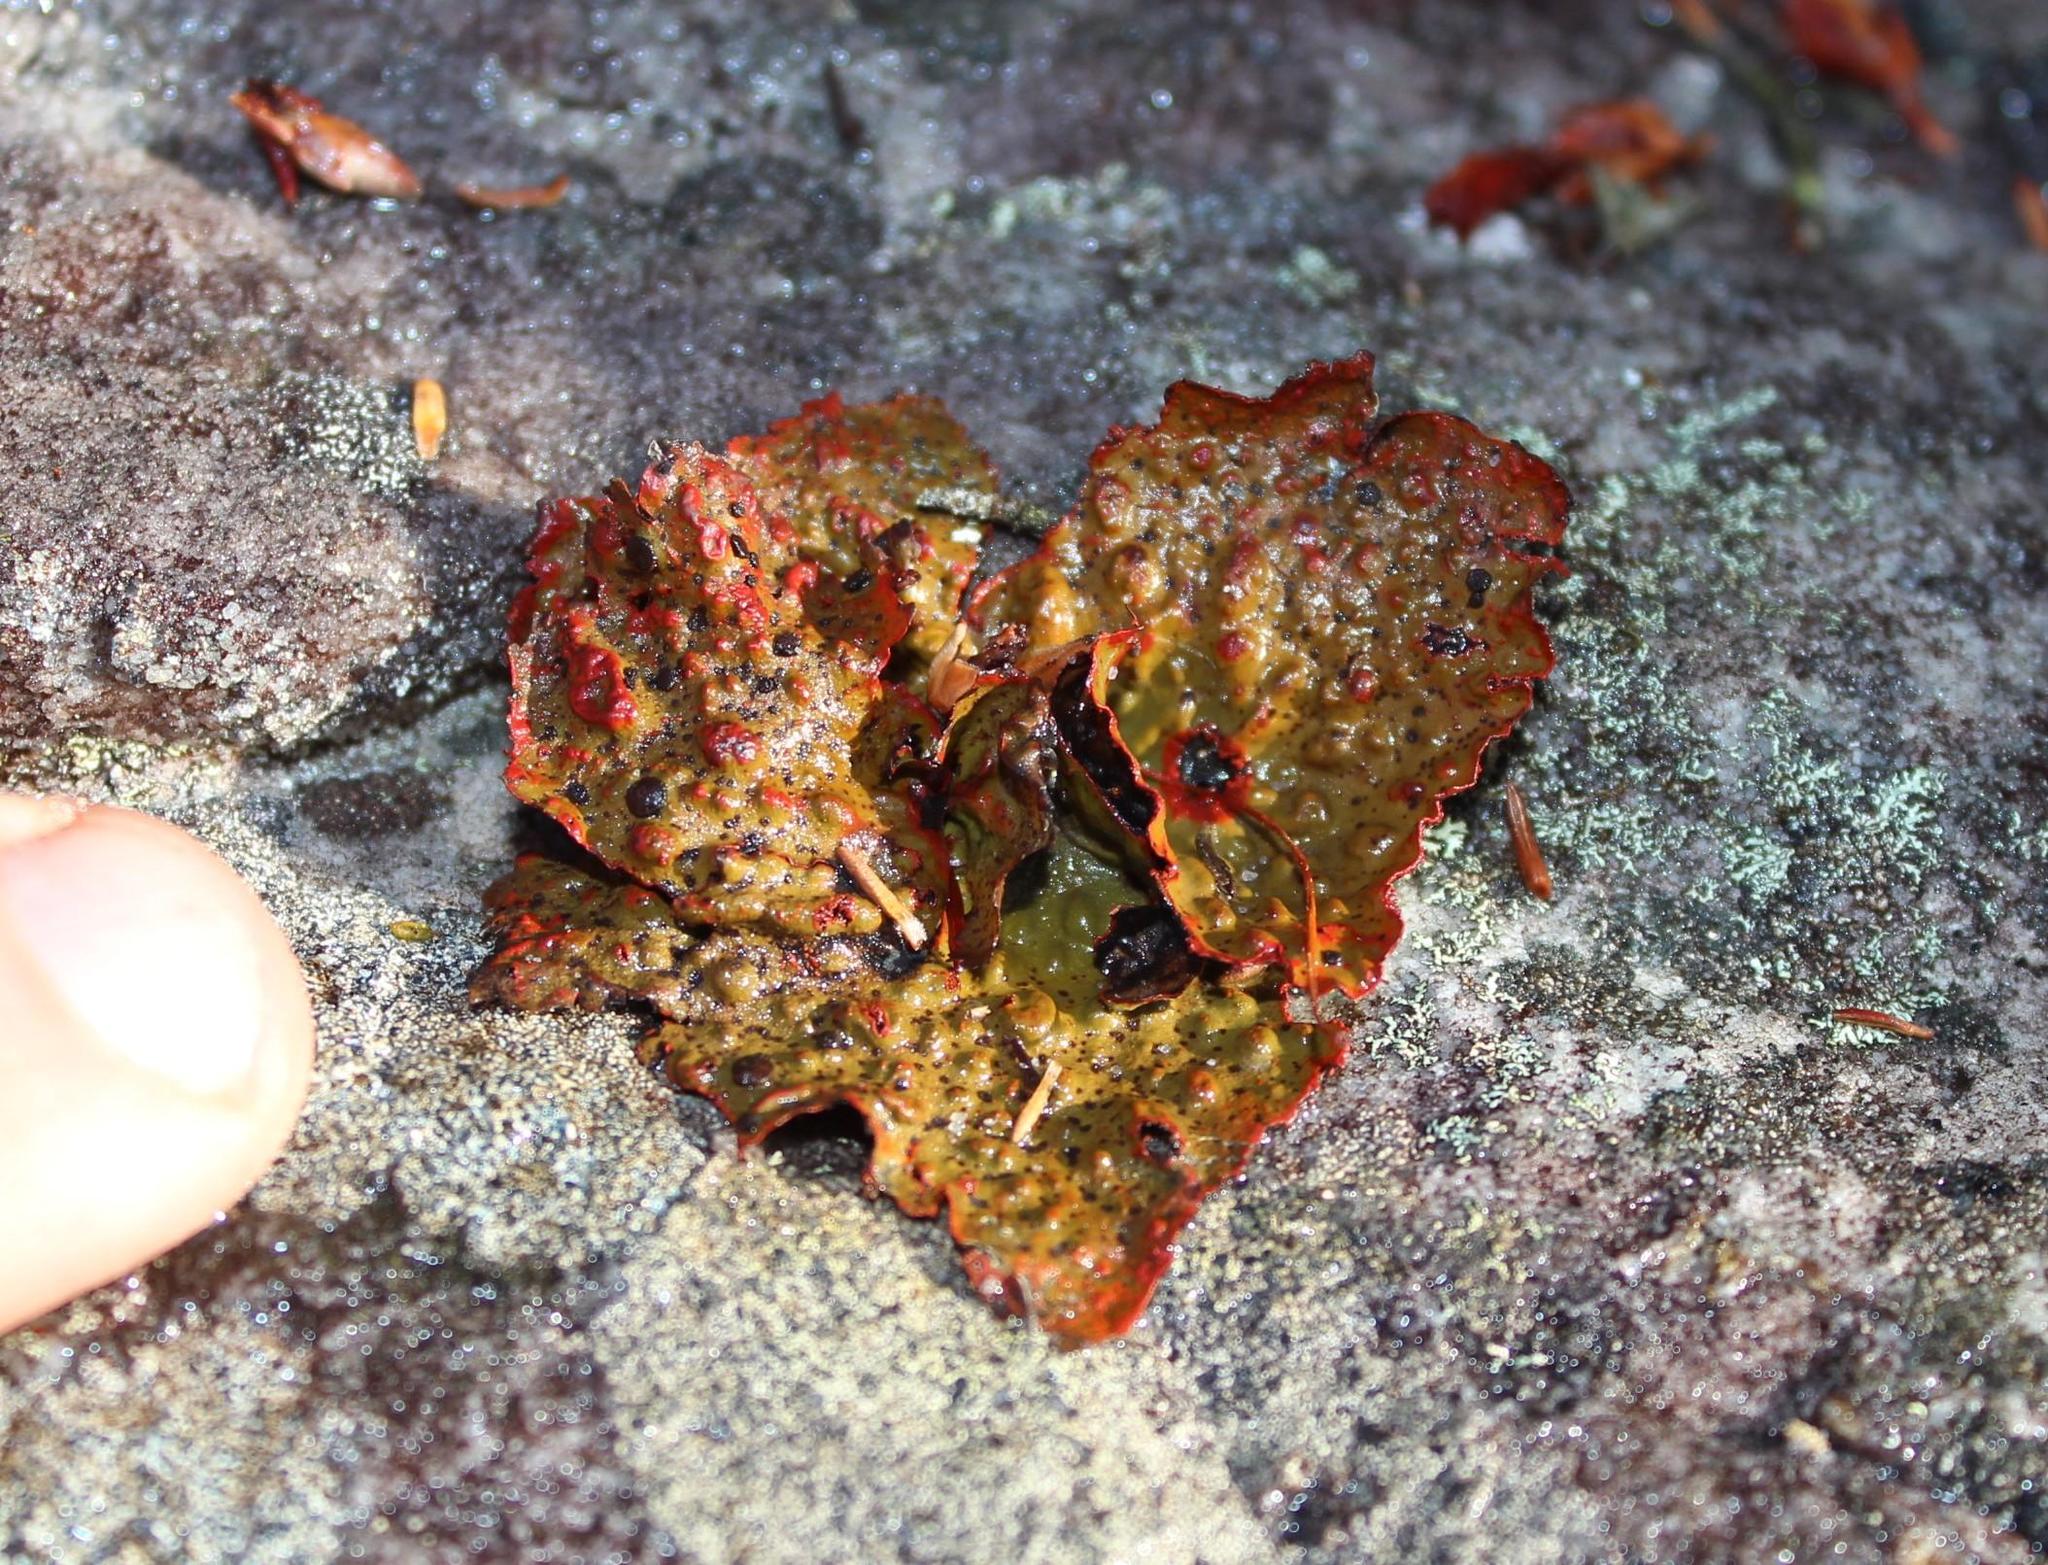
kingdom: Fungi
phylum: Ascomycota
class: Lecanoromycetes
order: Umbilicariales
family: Umbilicariaceae
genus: Lasallia
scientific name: Lasallia rubiginosa
